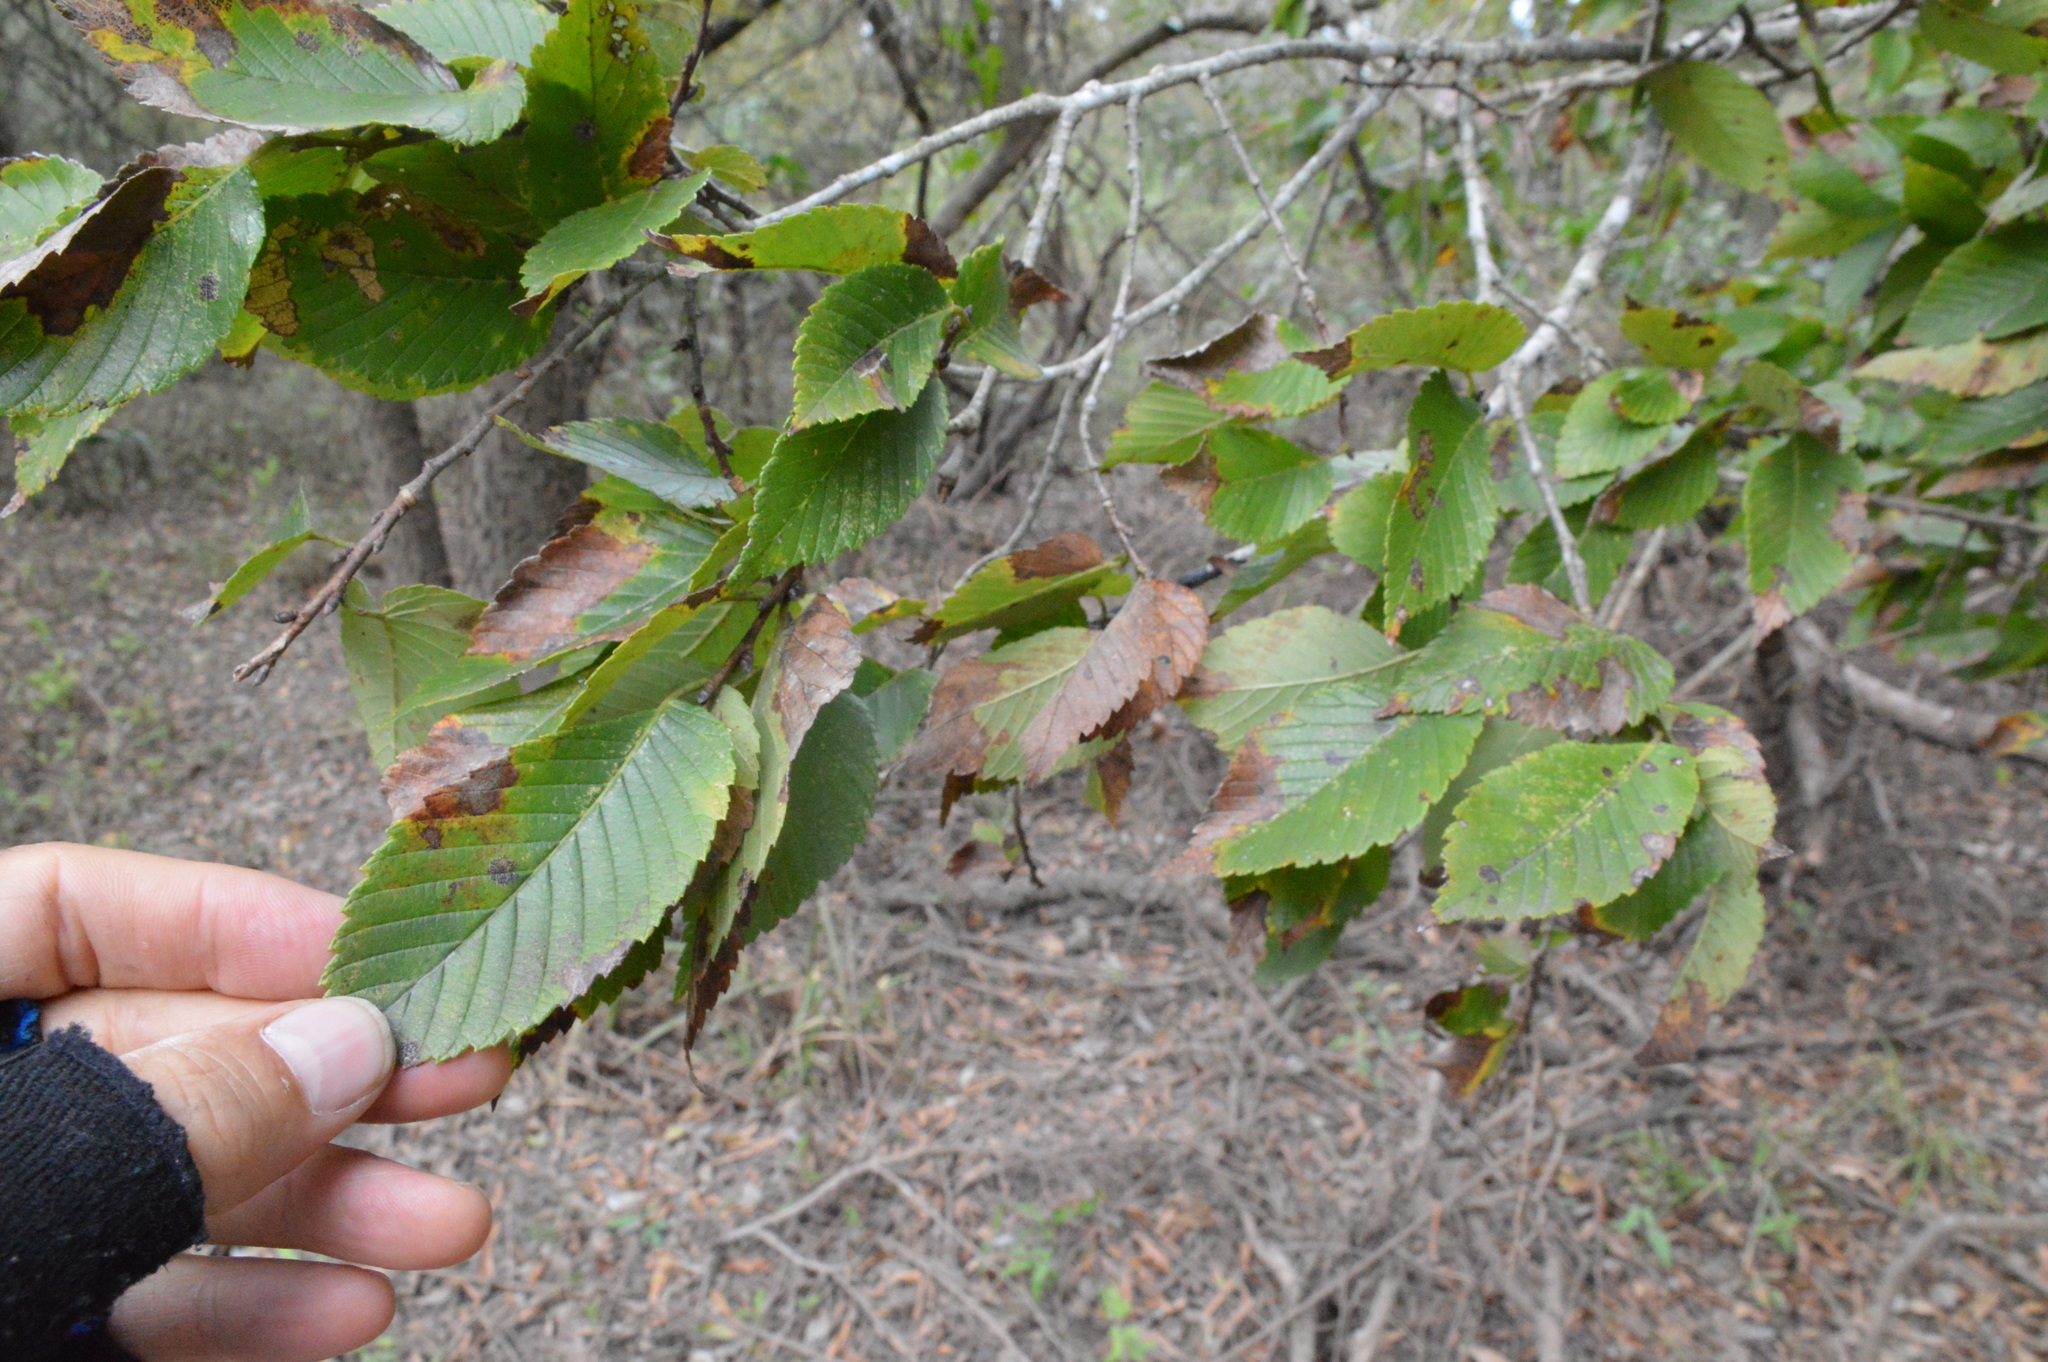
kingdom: Plantae
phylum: Tracheophyta
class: Magnoliopsida
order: Rosales
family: Ulmaceae
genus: Ulmus
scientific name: Ulmus americana
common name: American elm
